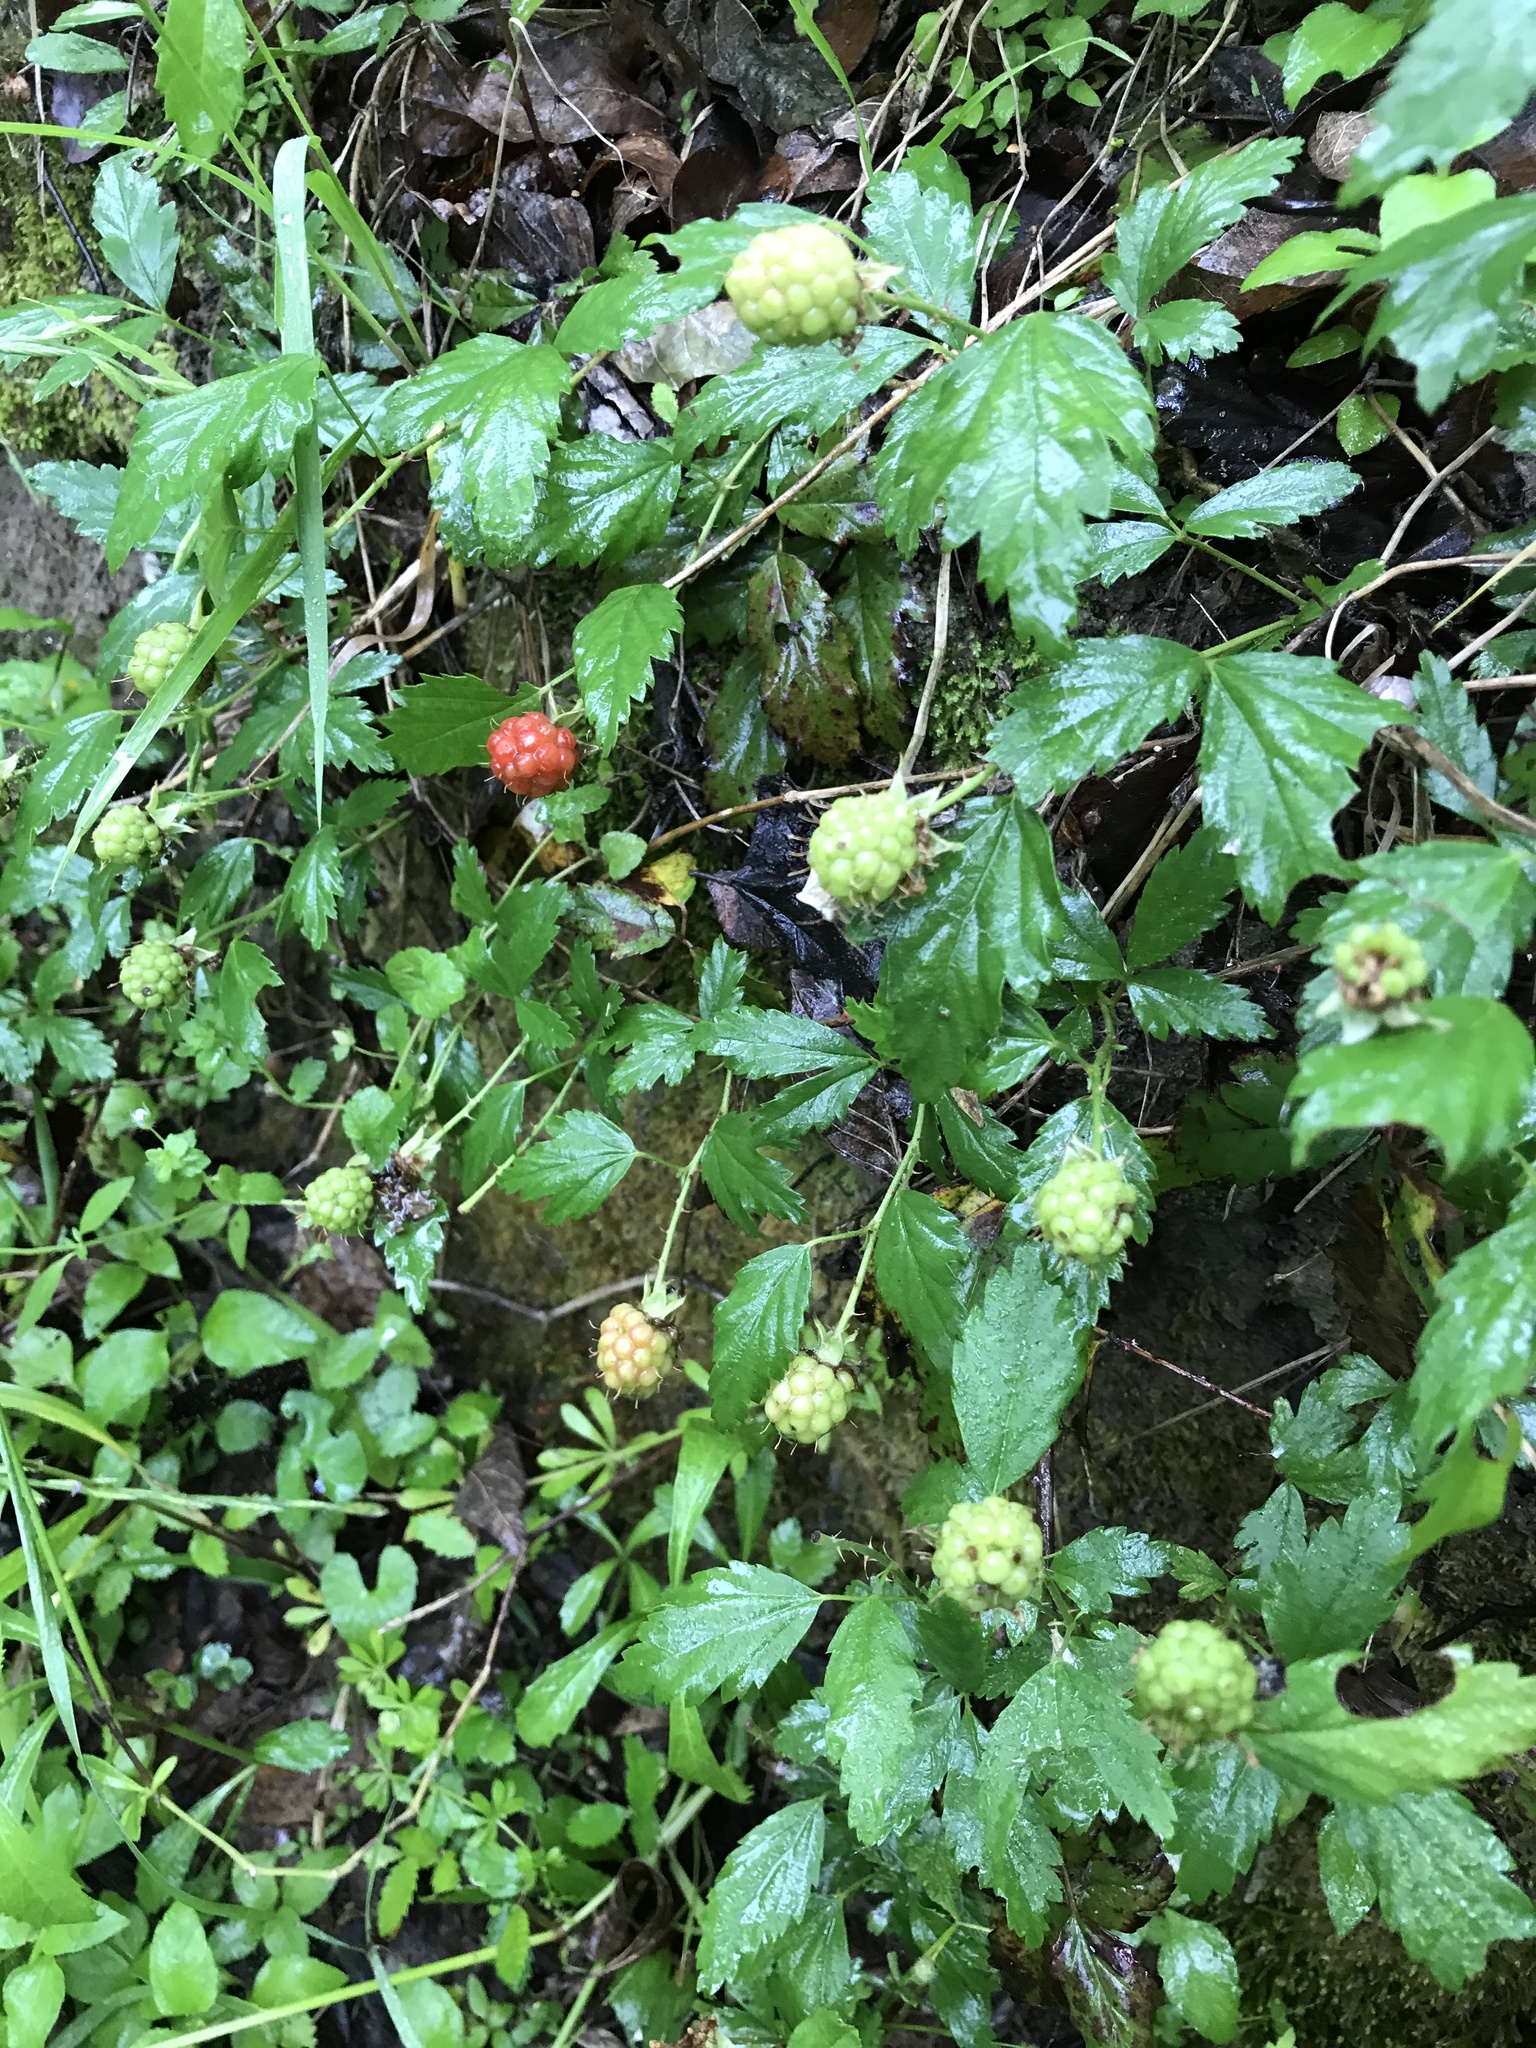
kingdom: Plantae
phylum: Tracheophyta
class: Magnoliopsida
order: Rosales
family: Rosaceae
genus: Rubus
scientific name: Rubus trivialis
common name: Southern dewberry
